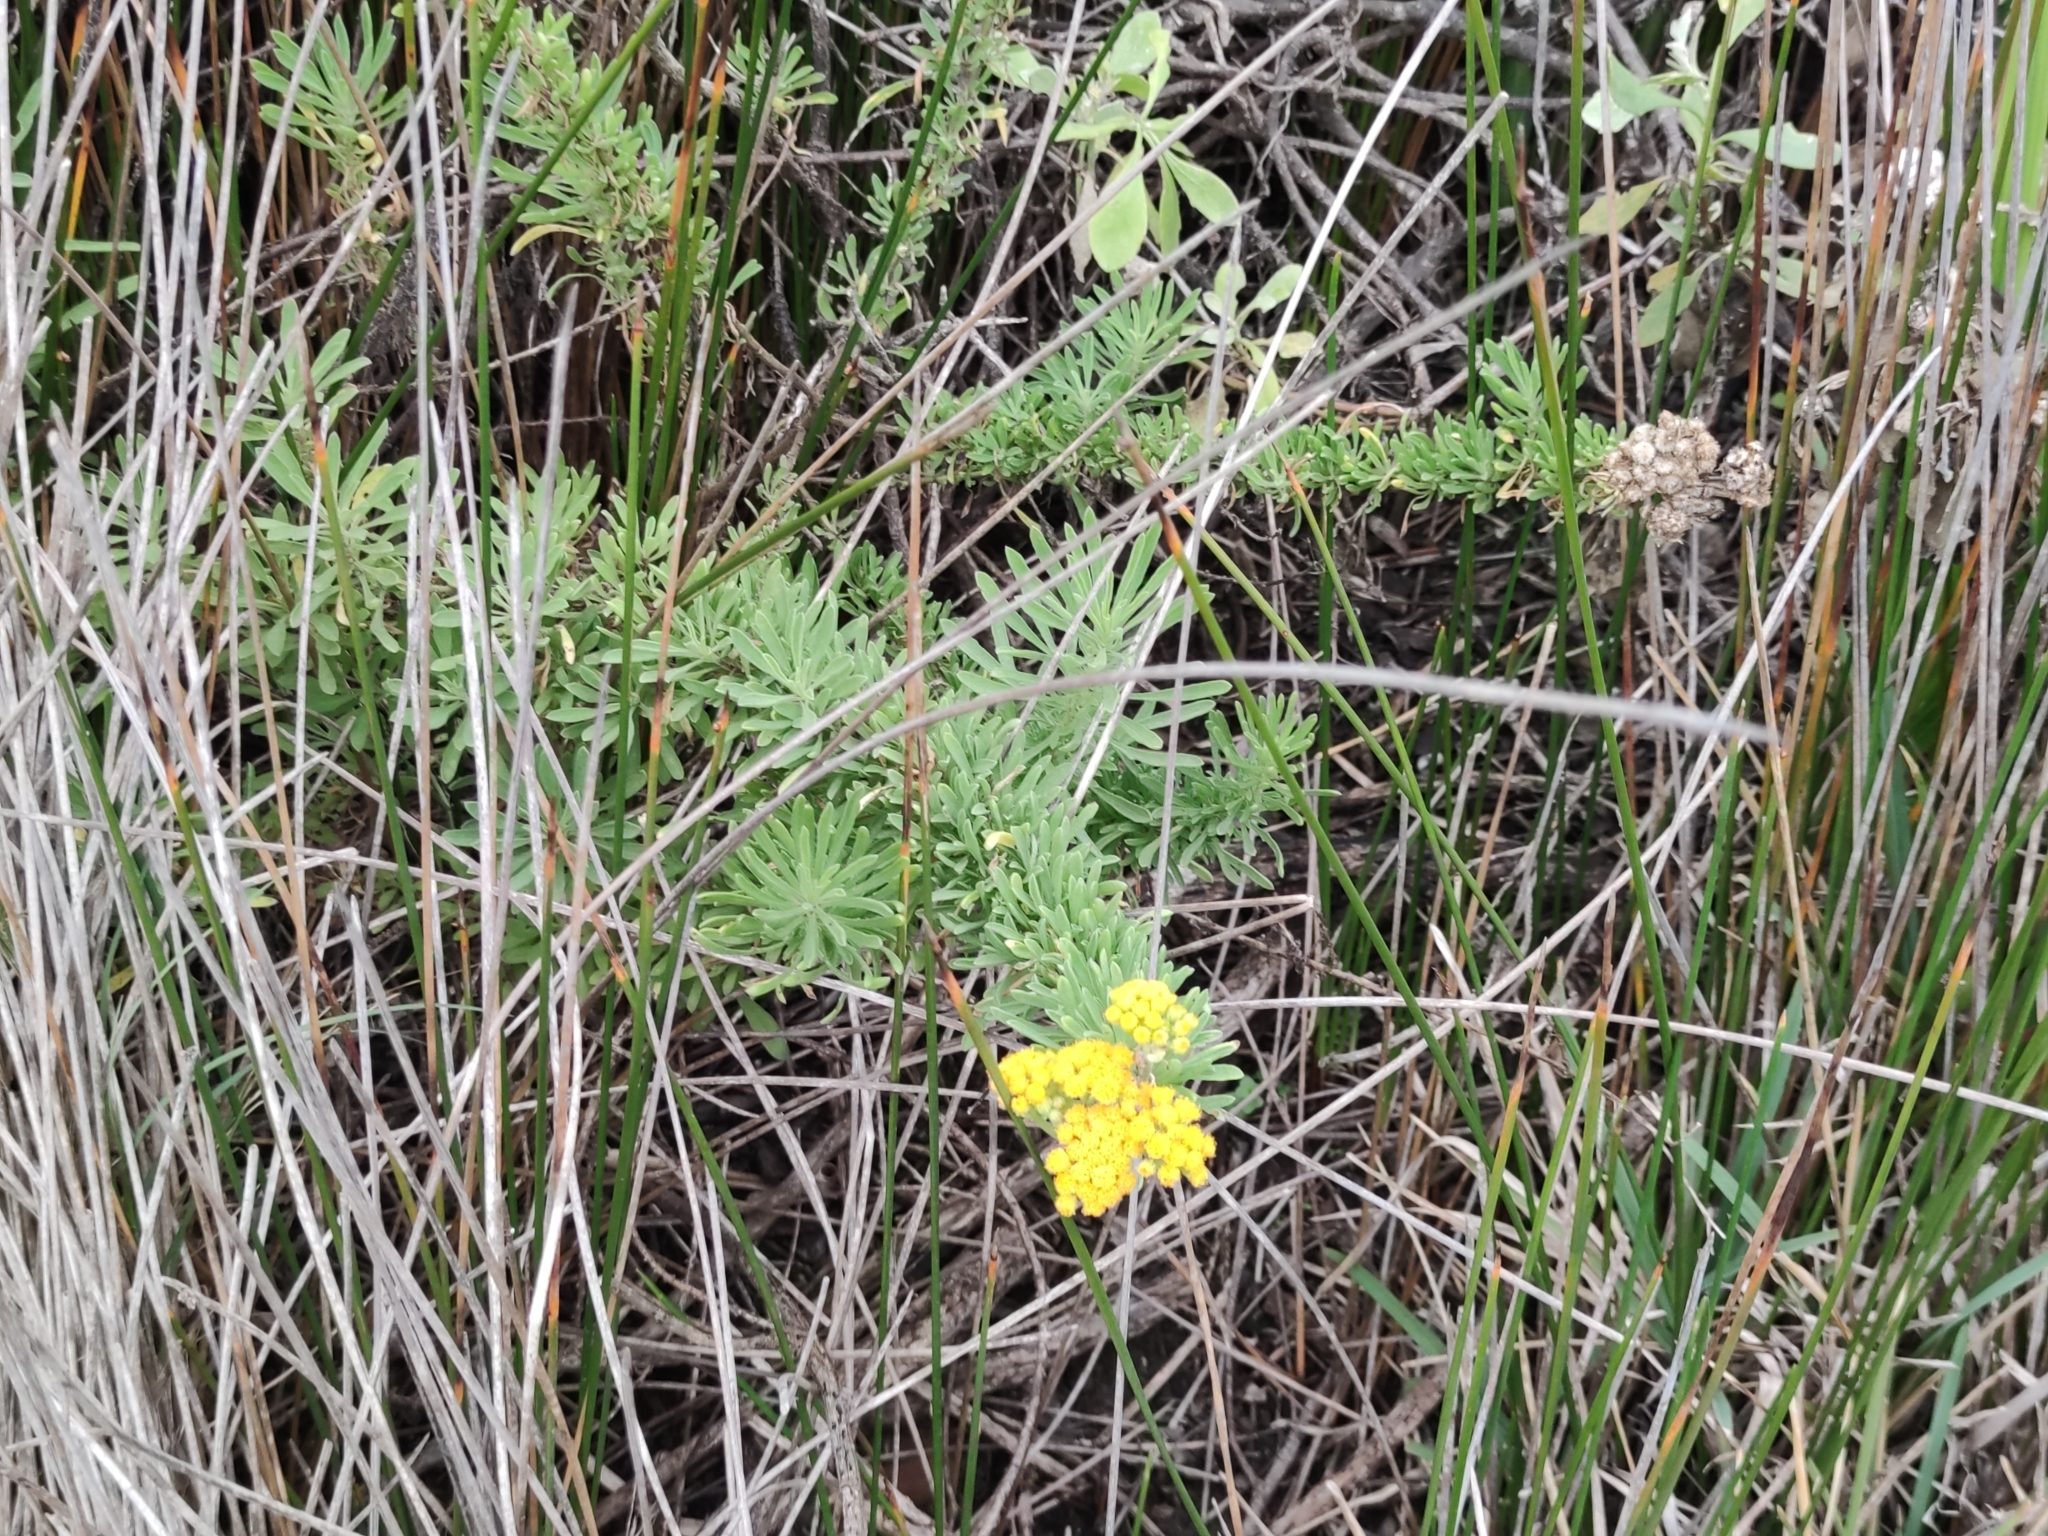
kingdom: Plantae
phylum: Tracheophyta
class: Magnoliopsida
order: Asterales
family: Asteraceae
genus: Nidorella
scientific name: Nidorella foetida
